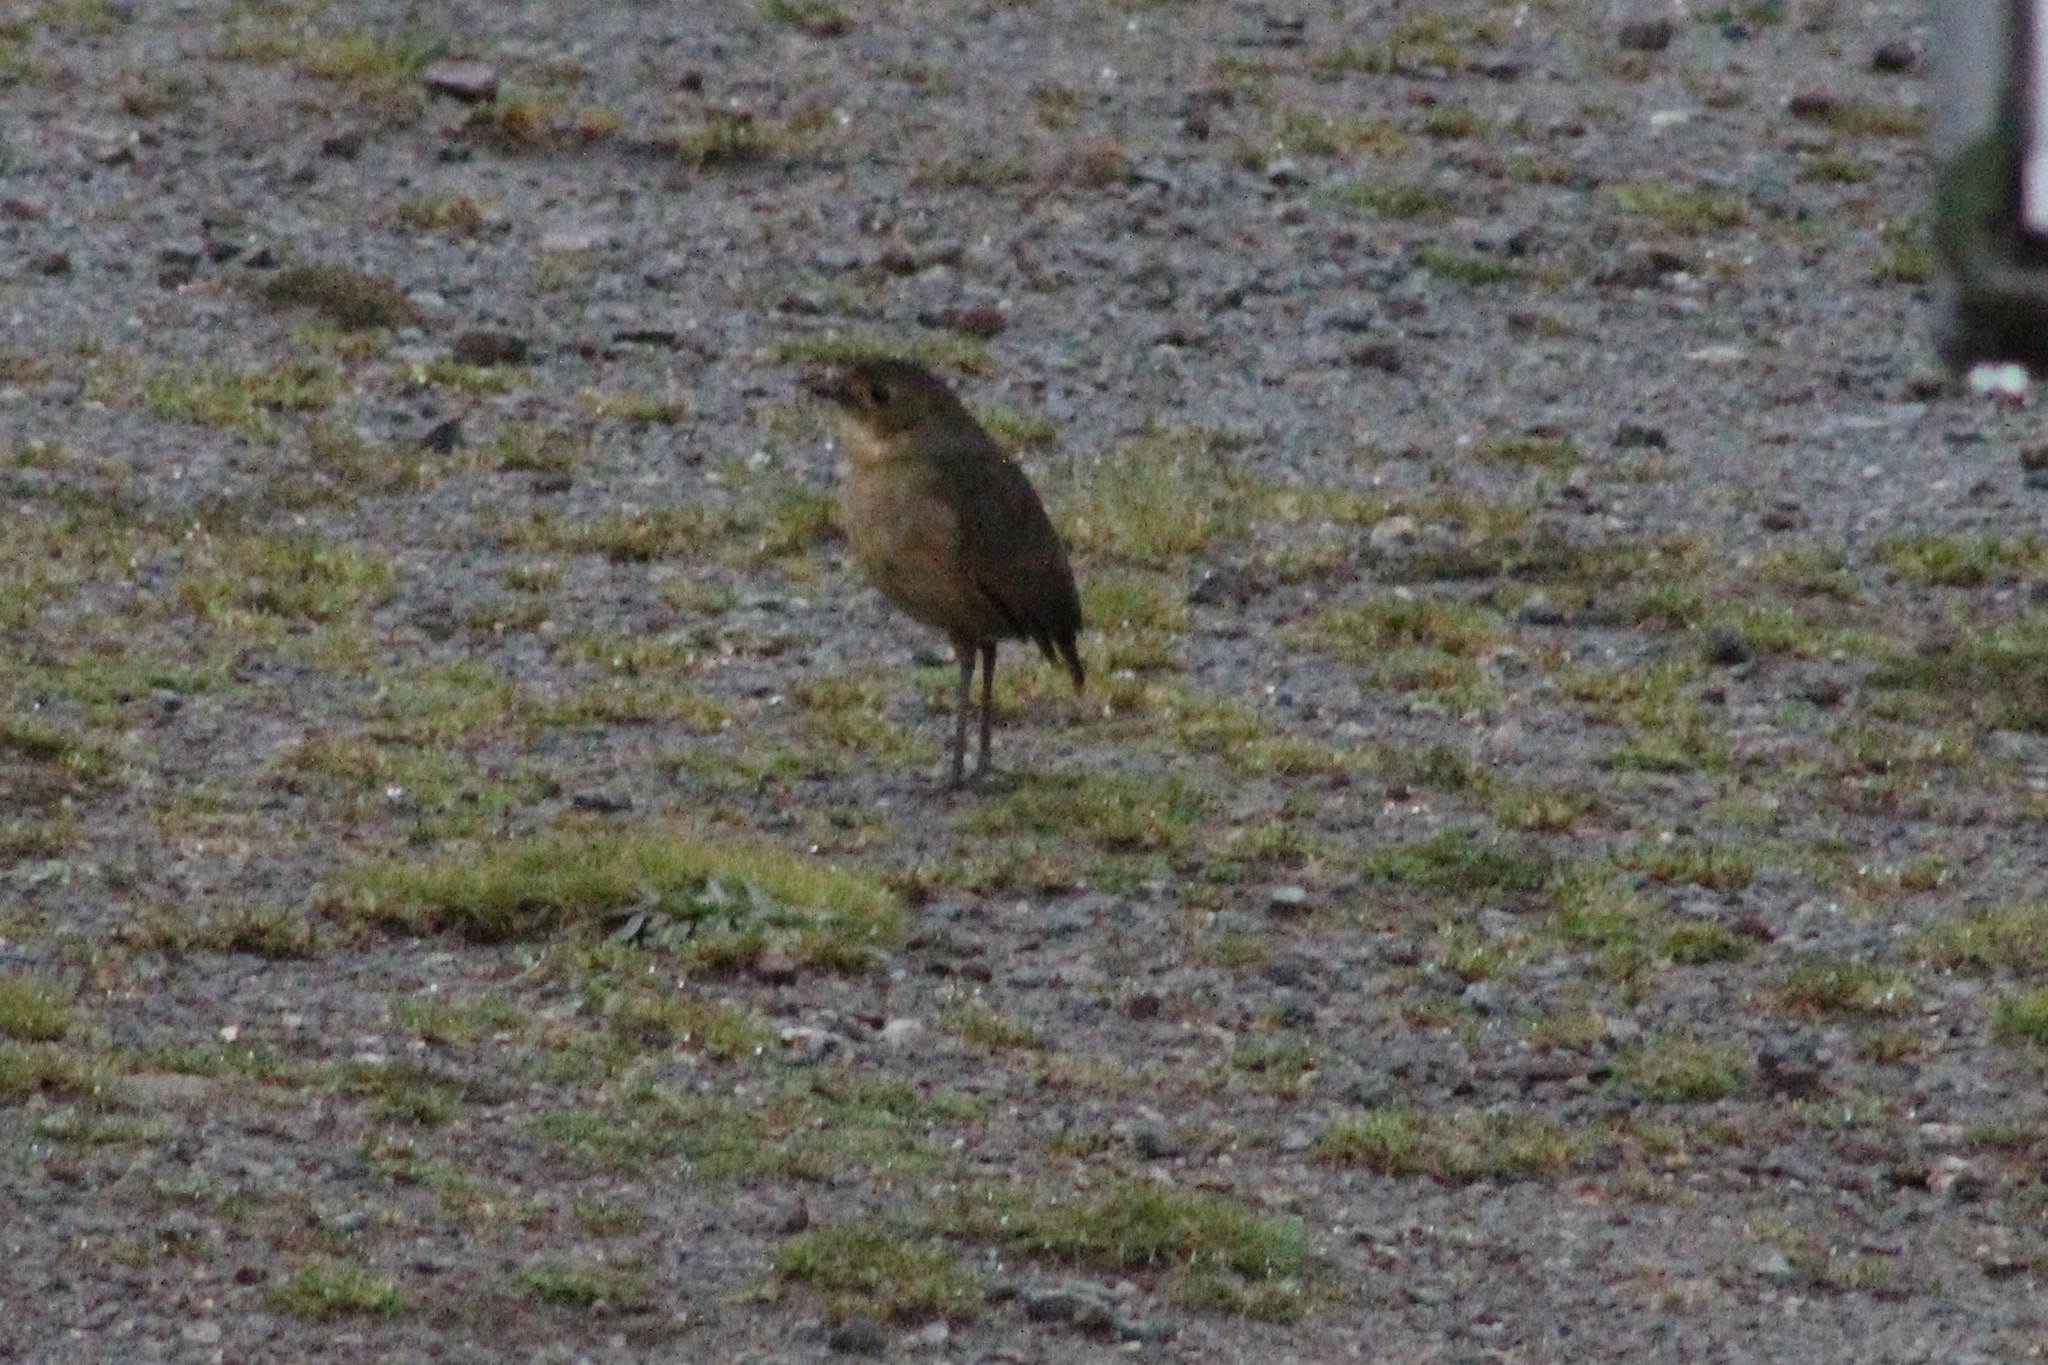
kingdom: Animalia
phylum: Chordata
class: Aves
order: Passeriformes
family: Grallariidae
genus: Grallaria
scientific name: Grallaria quitensis
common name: Tawny antpitta
